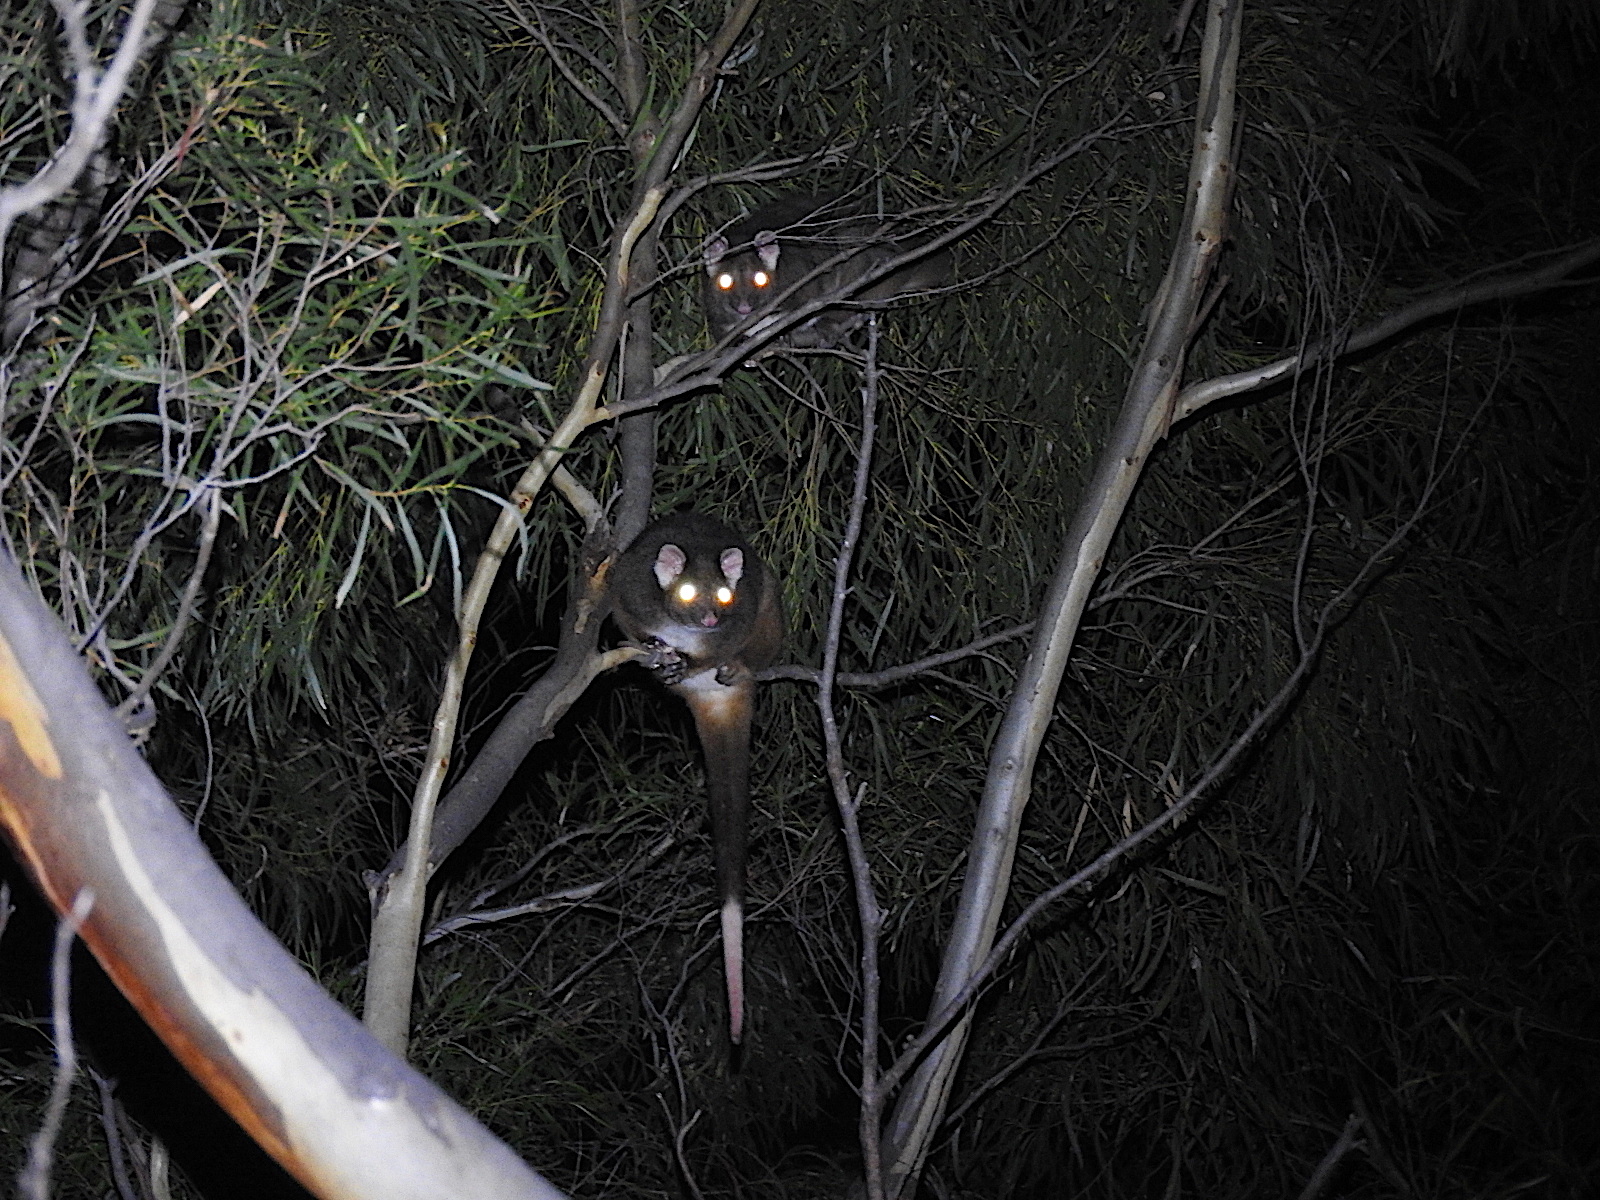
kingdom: Animalia
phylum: Chordata
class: Mammalia
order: Diprotodontia
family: Pseudocheiridae
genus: Pseudocheirus
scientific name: Pseudocheirus peregrinus
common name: Common ringtail possum
